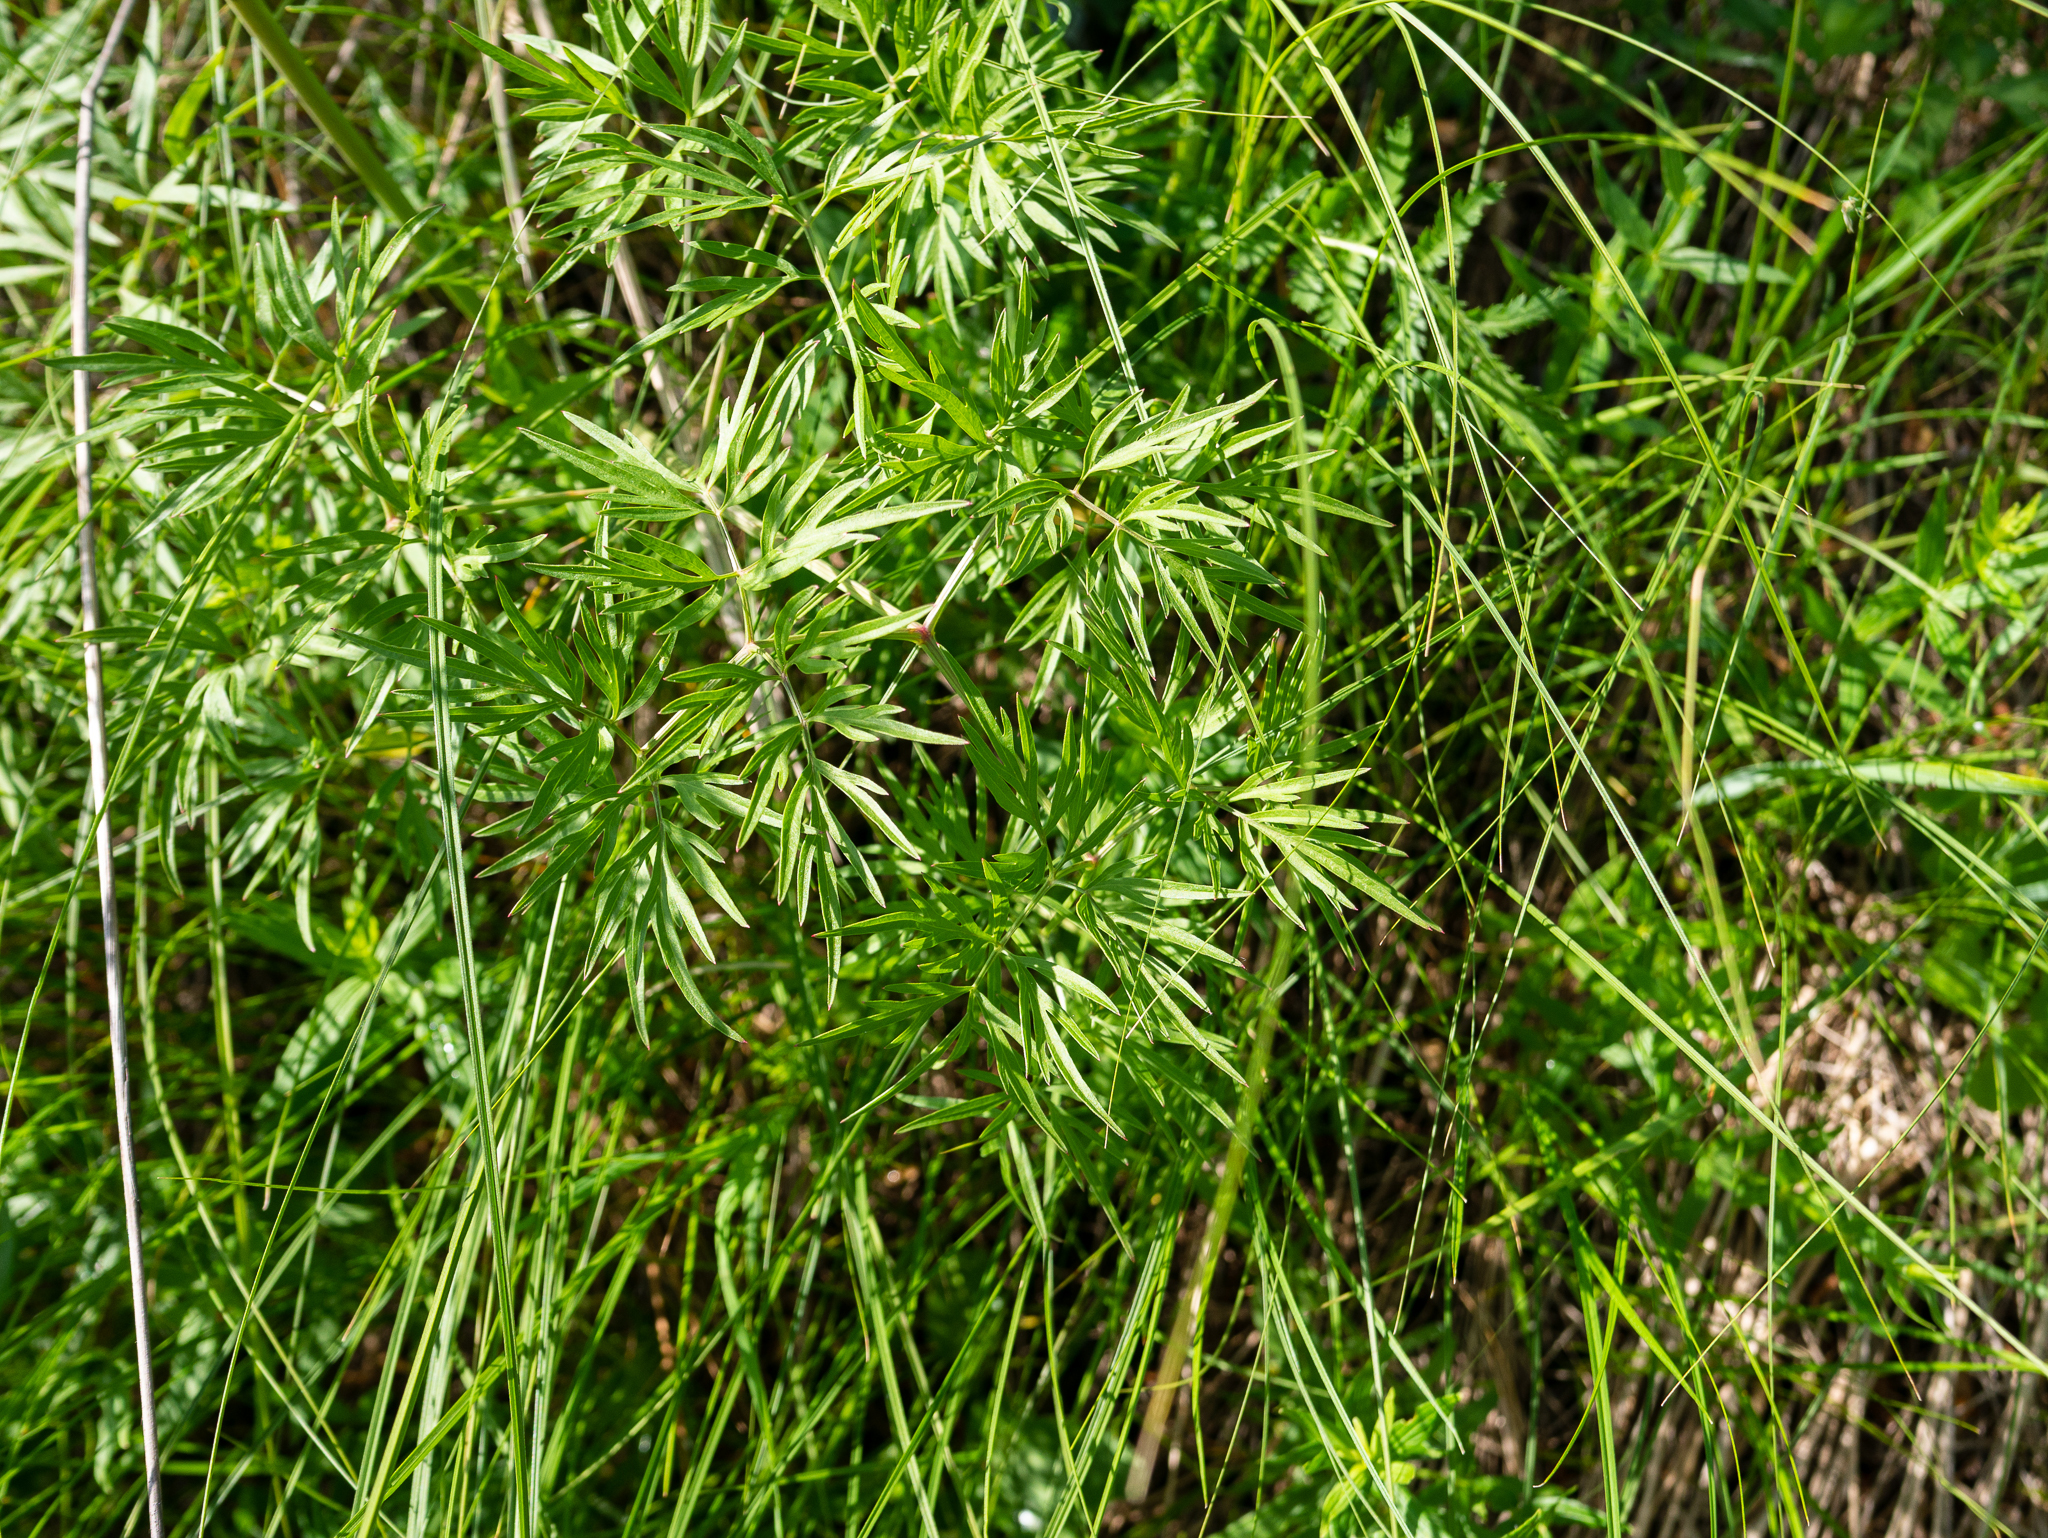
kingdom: Plantae
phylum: Tracheophyta
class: Magnoliopsida
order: Apiales
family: Apiaceae
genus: Cenolophium
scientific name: Cenolophium fischeri
